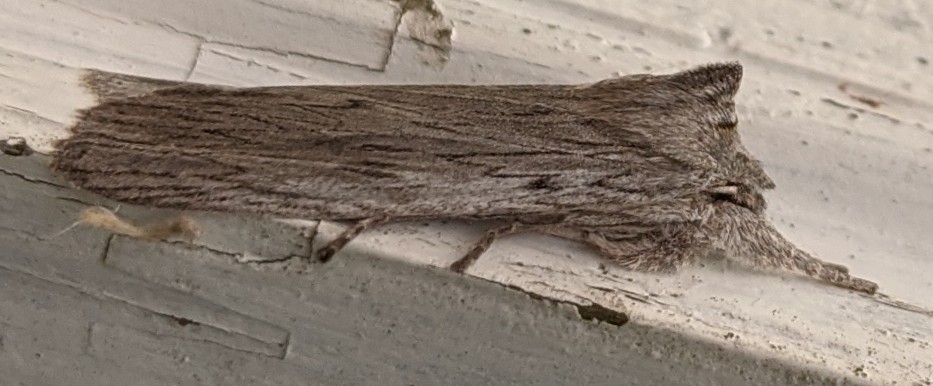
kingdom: Animalia
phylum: Arthropoda
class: Insecta
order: Lepidoptera
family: Noctuidae
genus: Lithophane
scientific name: Lithophane fagina
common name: Hoary pinion moth
